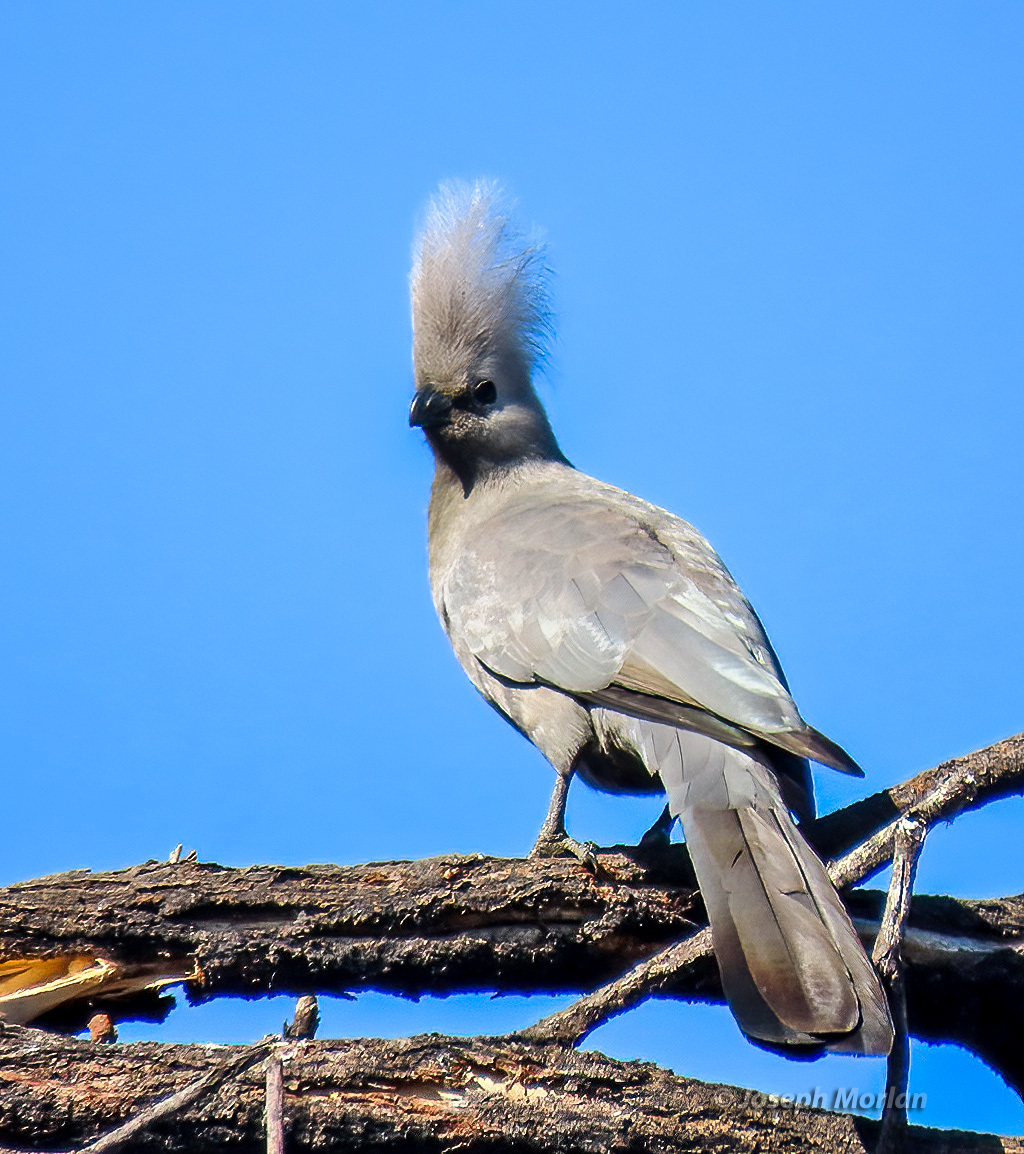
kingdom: Animalia
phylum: Chordata
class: Aves
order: Musophagiformes
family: Musophagidae
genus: Corythaixoides
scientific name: Corythaixoides concolor
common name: Grey go-away-bird
